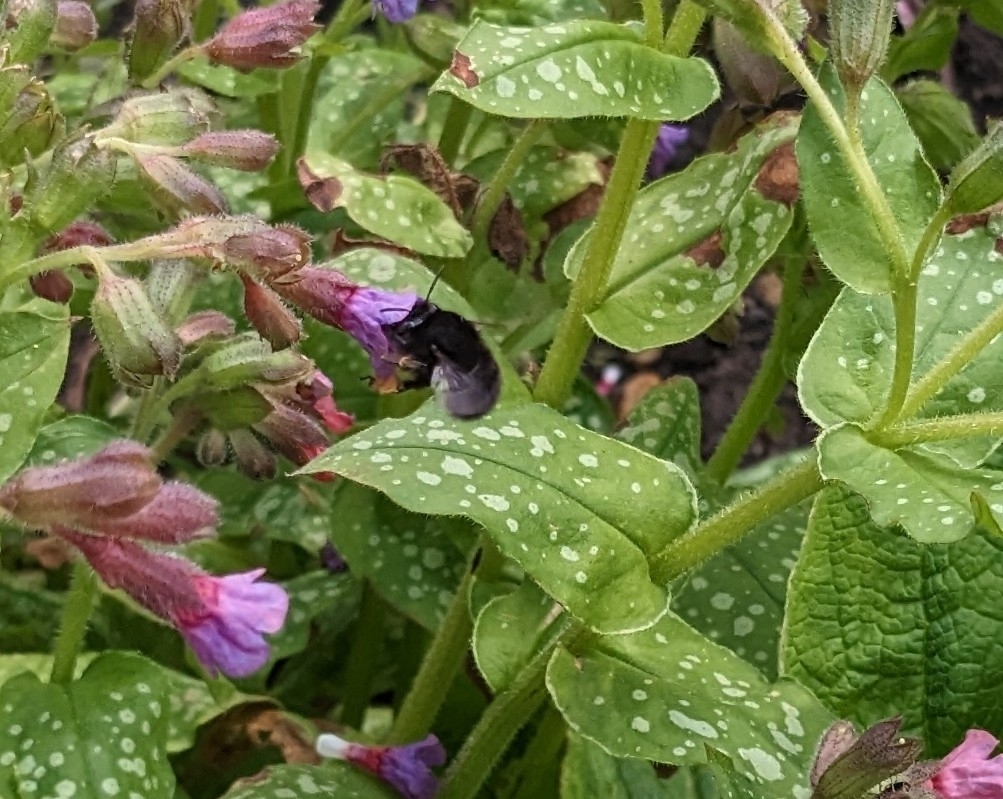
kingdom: Animalia
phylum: Arthropoda
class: Insecta
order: Hymenoptera
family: Apidae
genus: Anthophora
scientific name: Anthophora plumipes
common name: Hairy-footed flower bee
